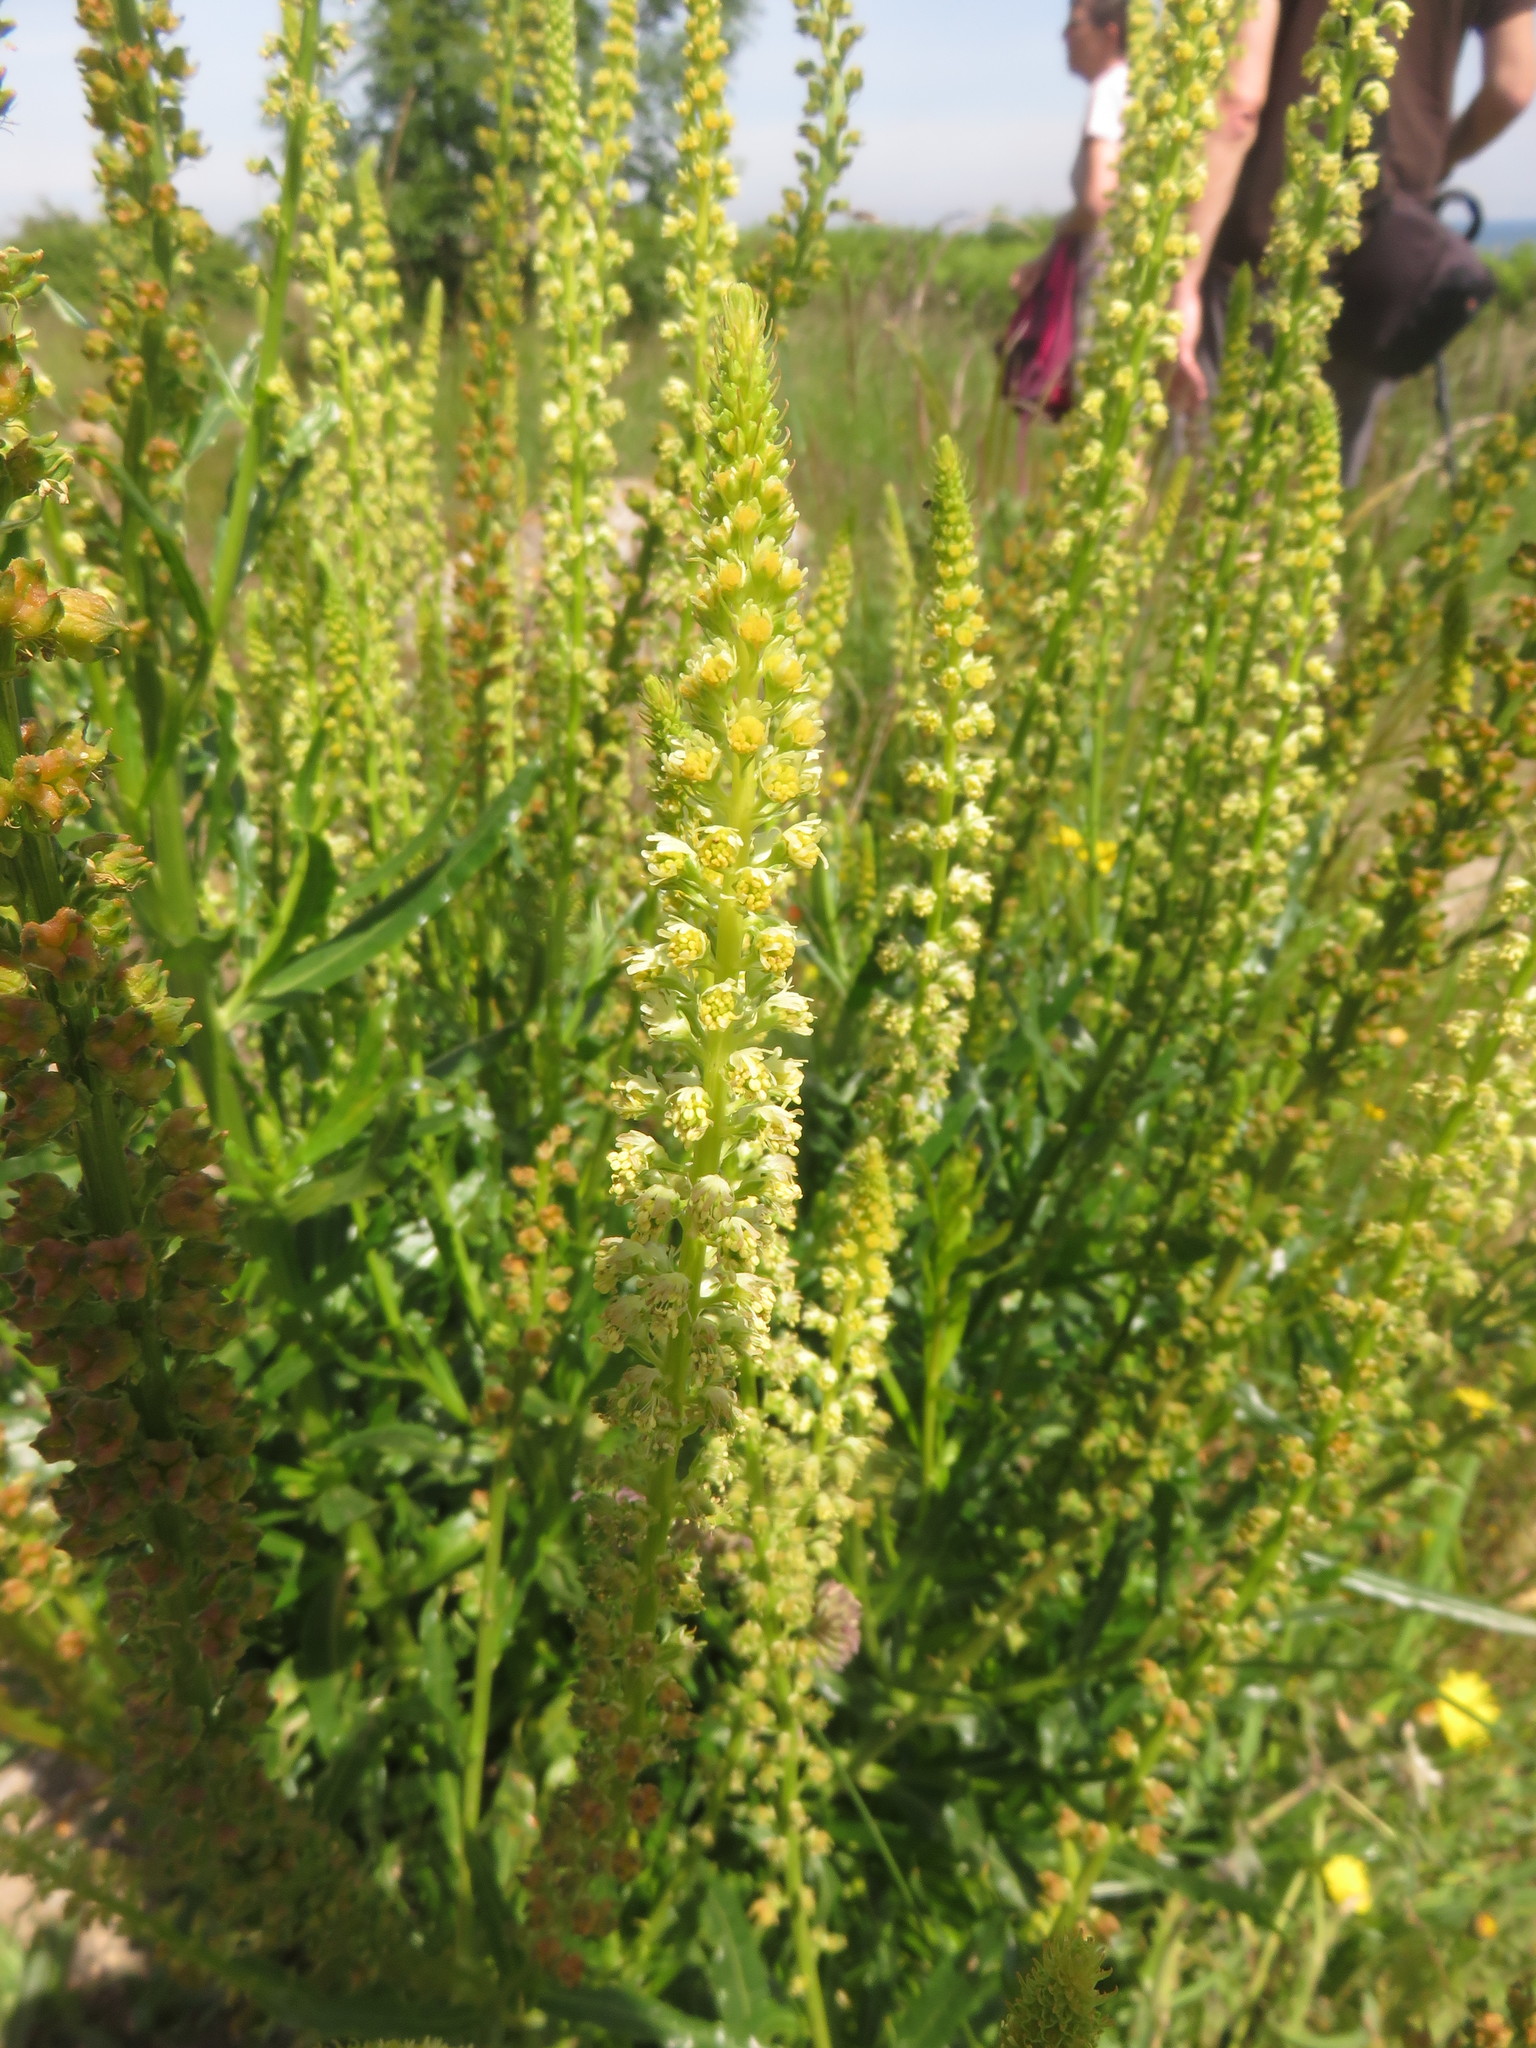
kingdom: Plantae
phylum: Tracheophyta
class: Magnoliopsida
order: Brassicales
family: Resedaceae
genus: Reseda
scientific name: Reseda luteola
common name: Weld
